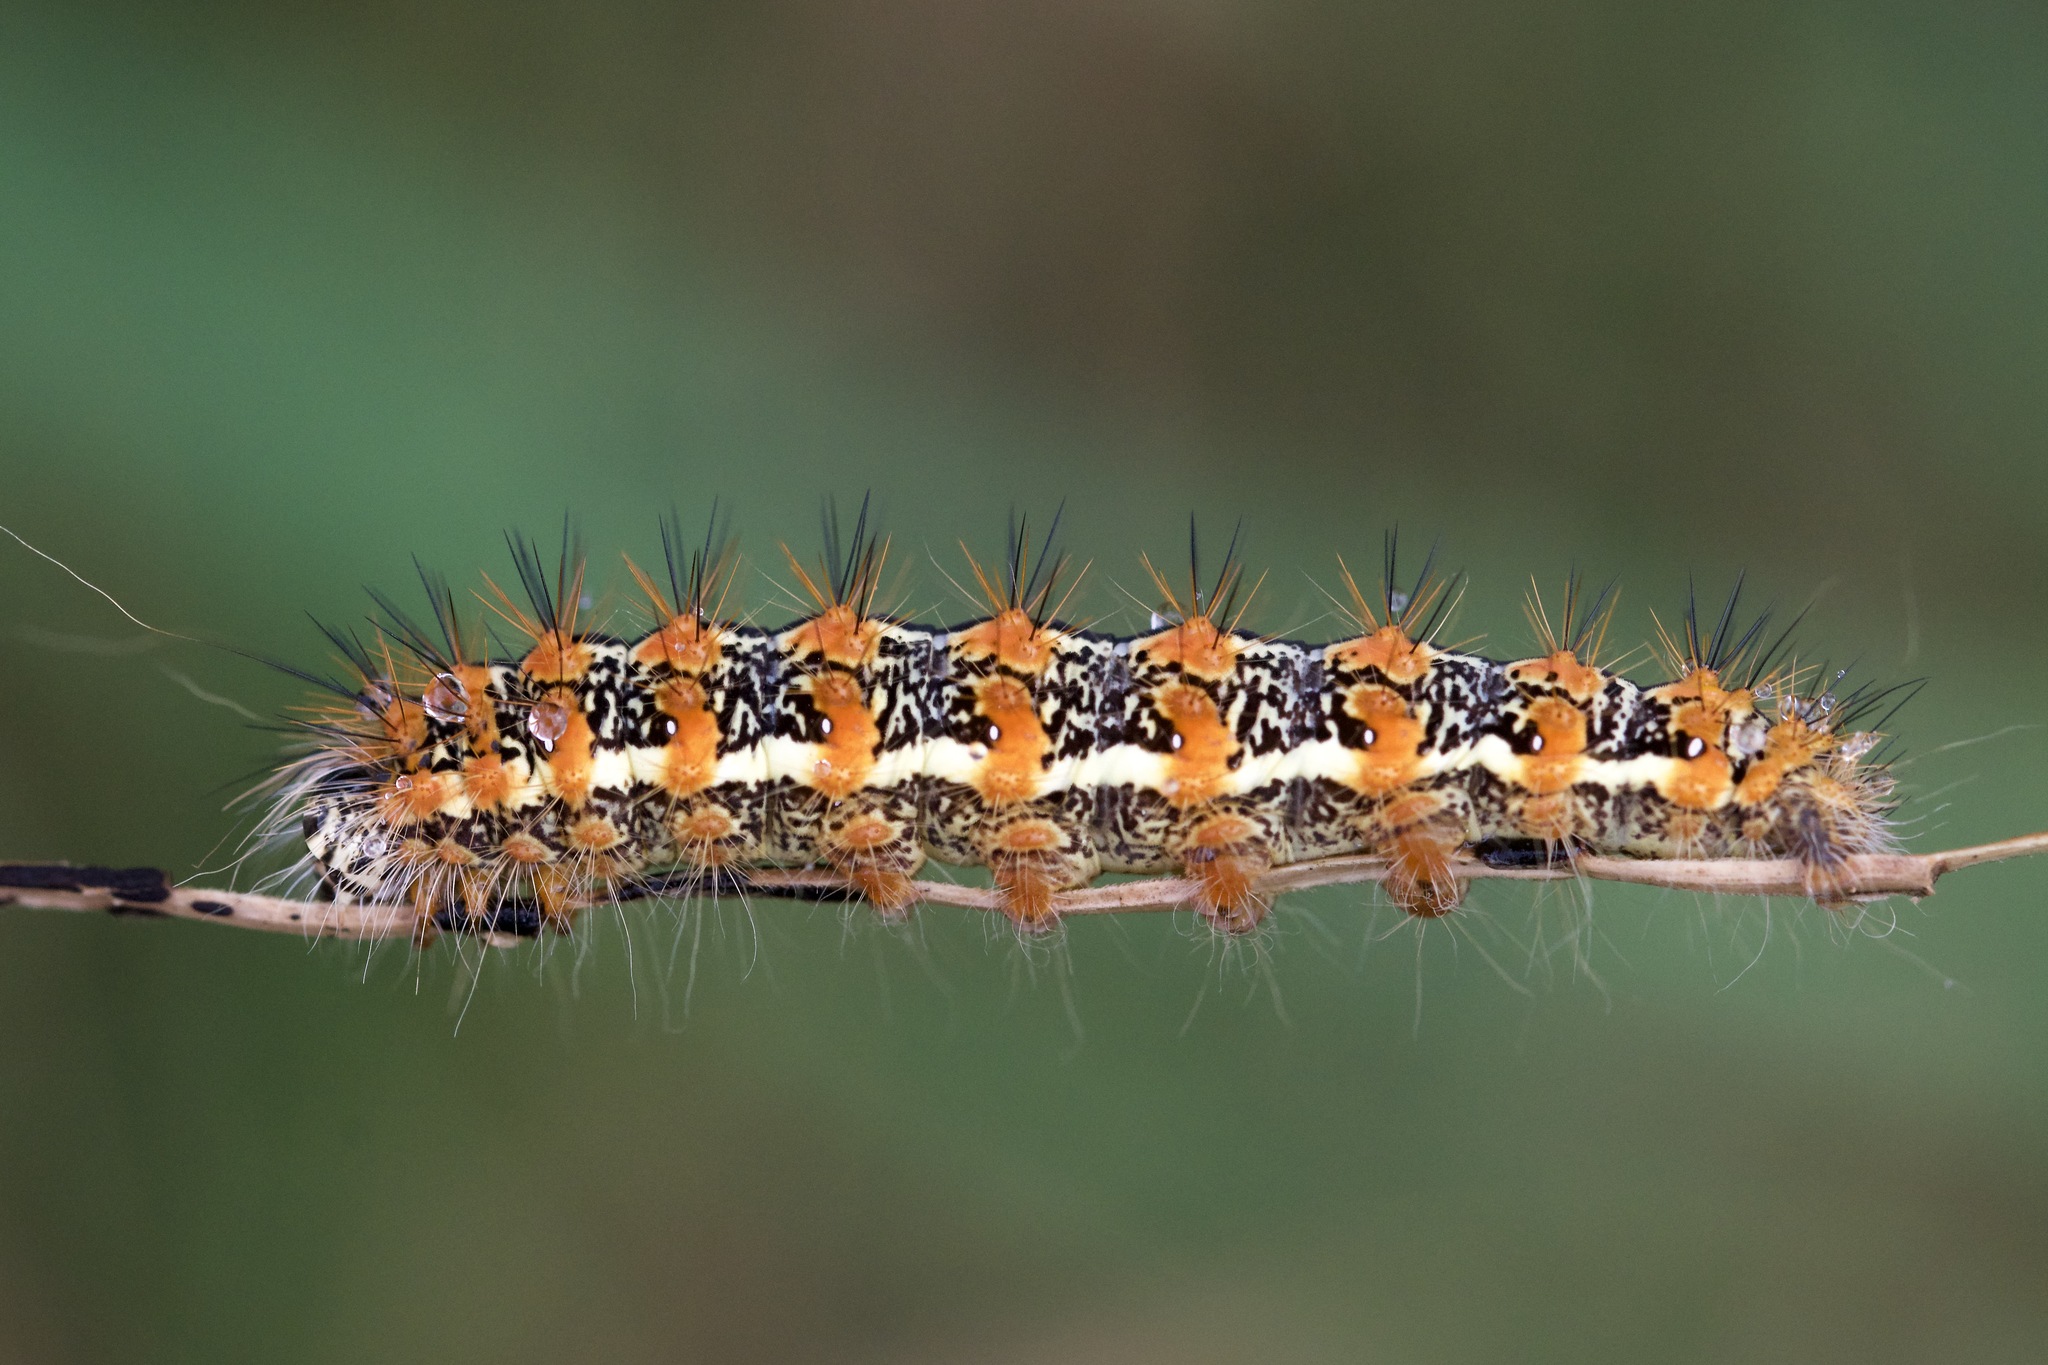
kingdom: Animalia
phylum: Arthropoda
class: Insecta
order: Lepidoptera
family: Noctuidae
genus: Acronicta
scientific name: Acronicta insularis
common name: Henry's marsh moth
